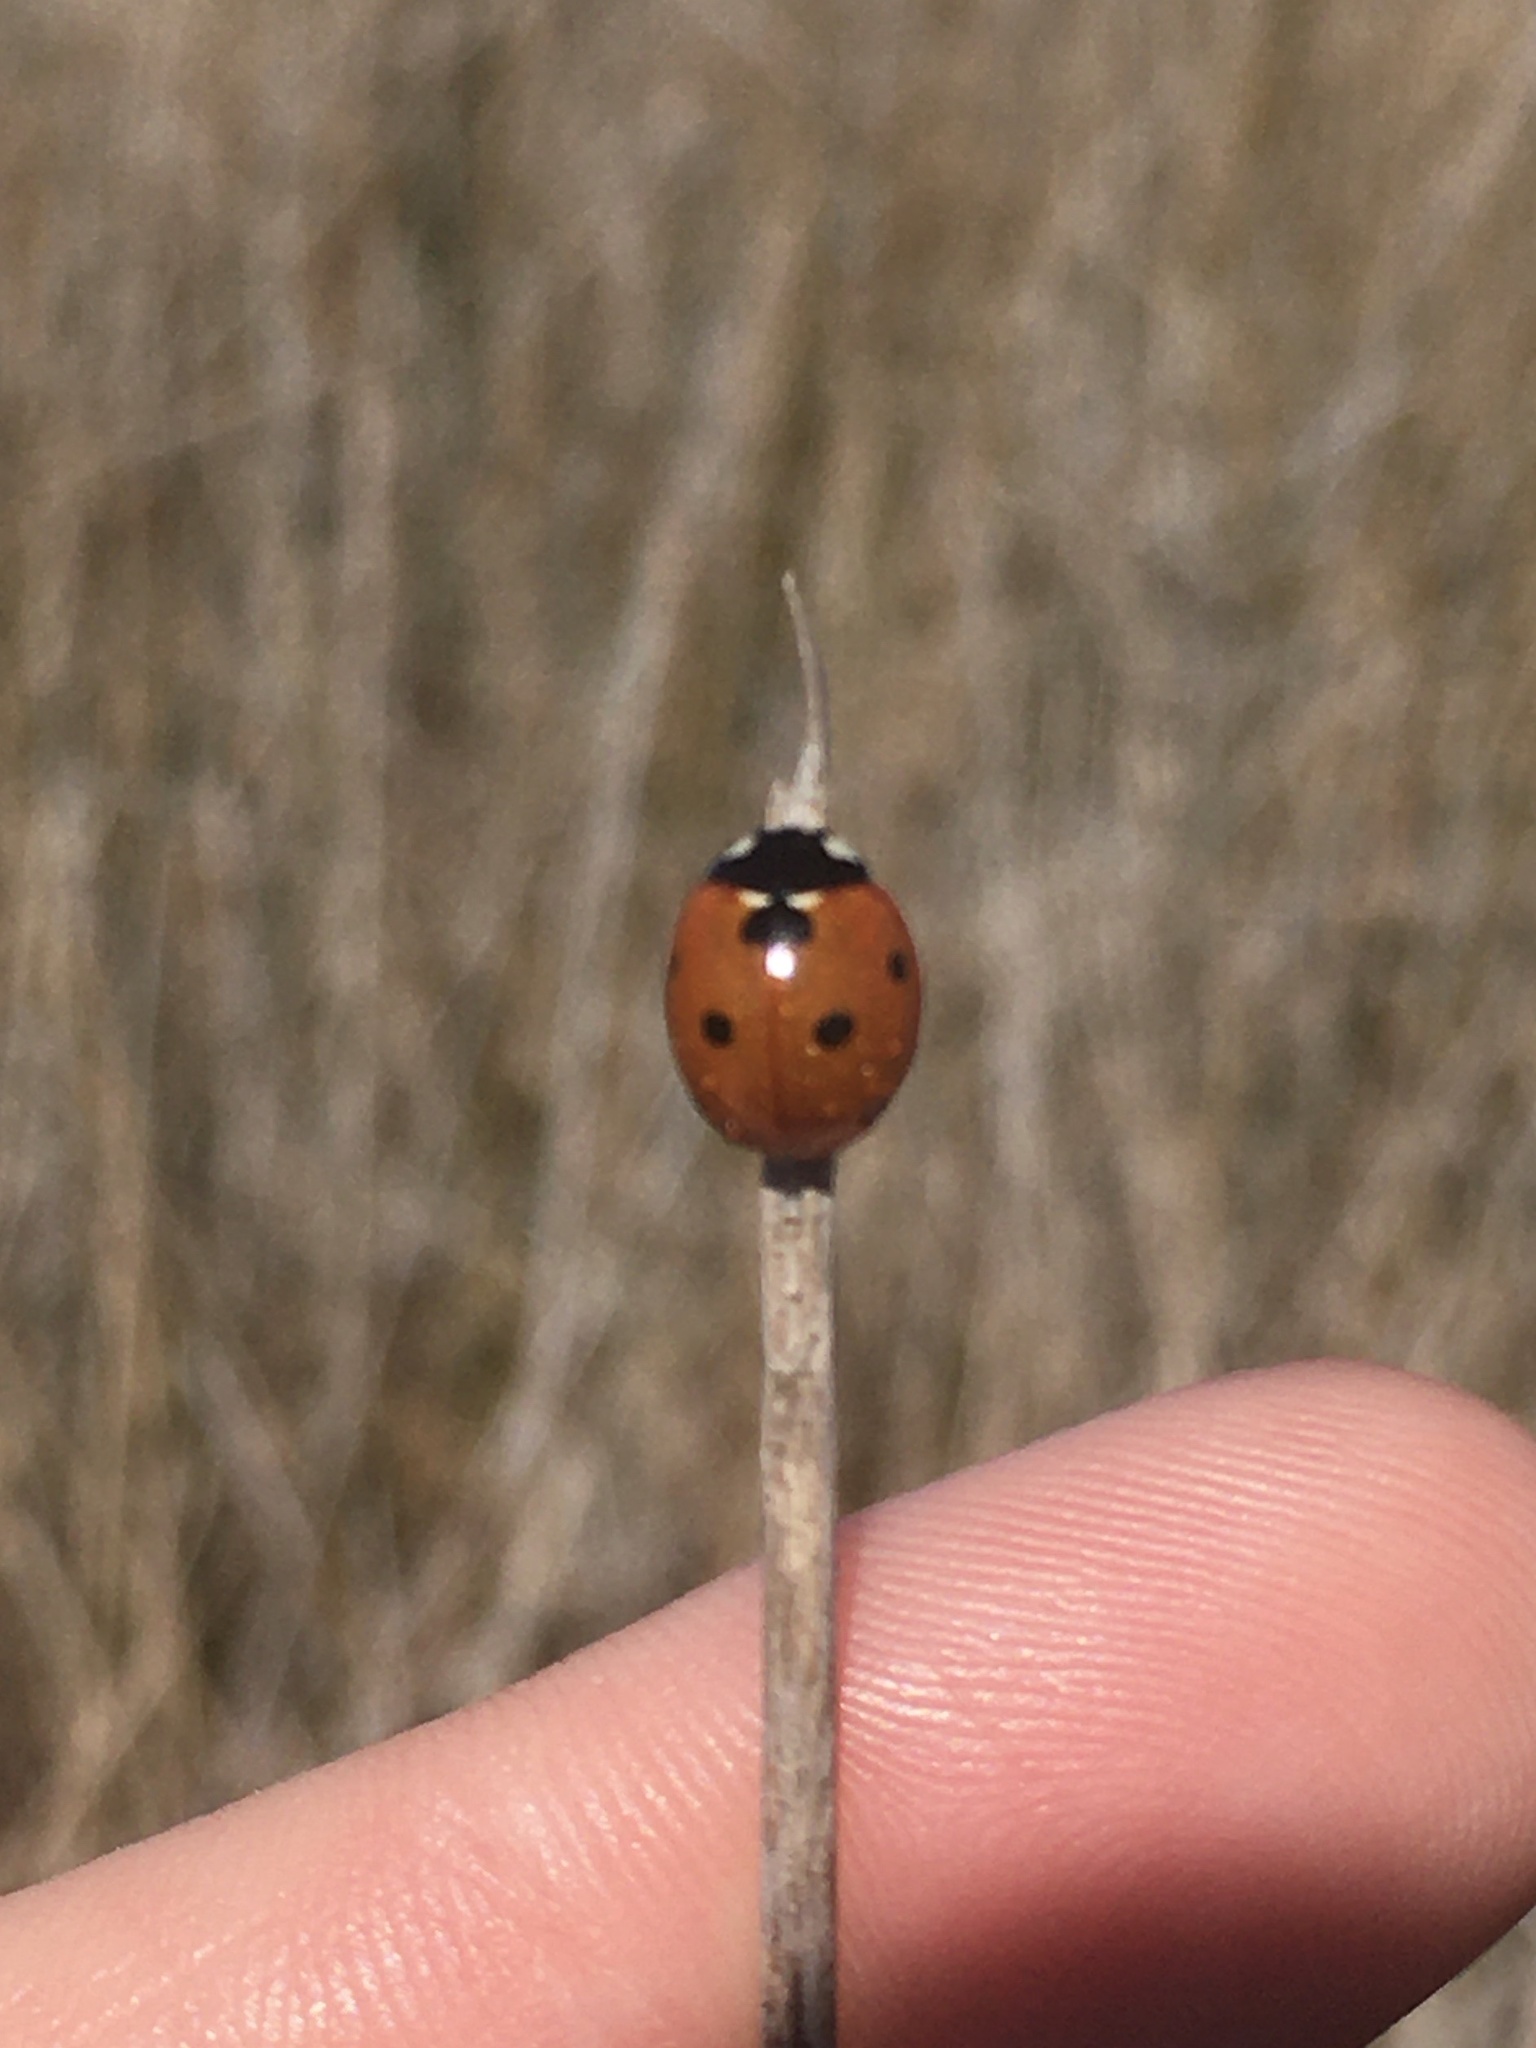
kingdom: Animalia
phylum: Arthropoda
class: Insecta
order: Coleoptera
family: Coccinellidae
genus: Coccinella
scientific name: Coccinella septempunctata
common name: Sevenspotted lady beetle
